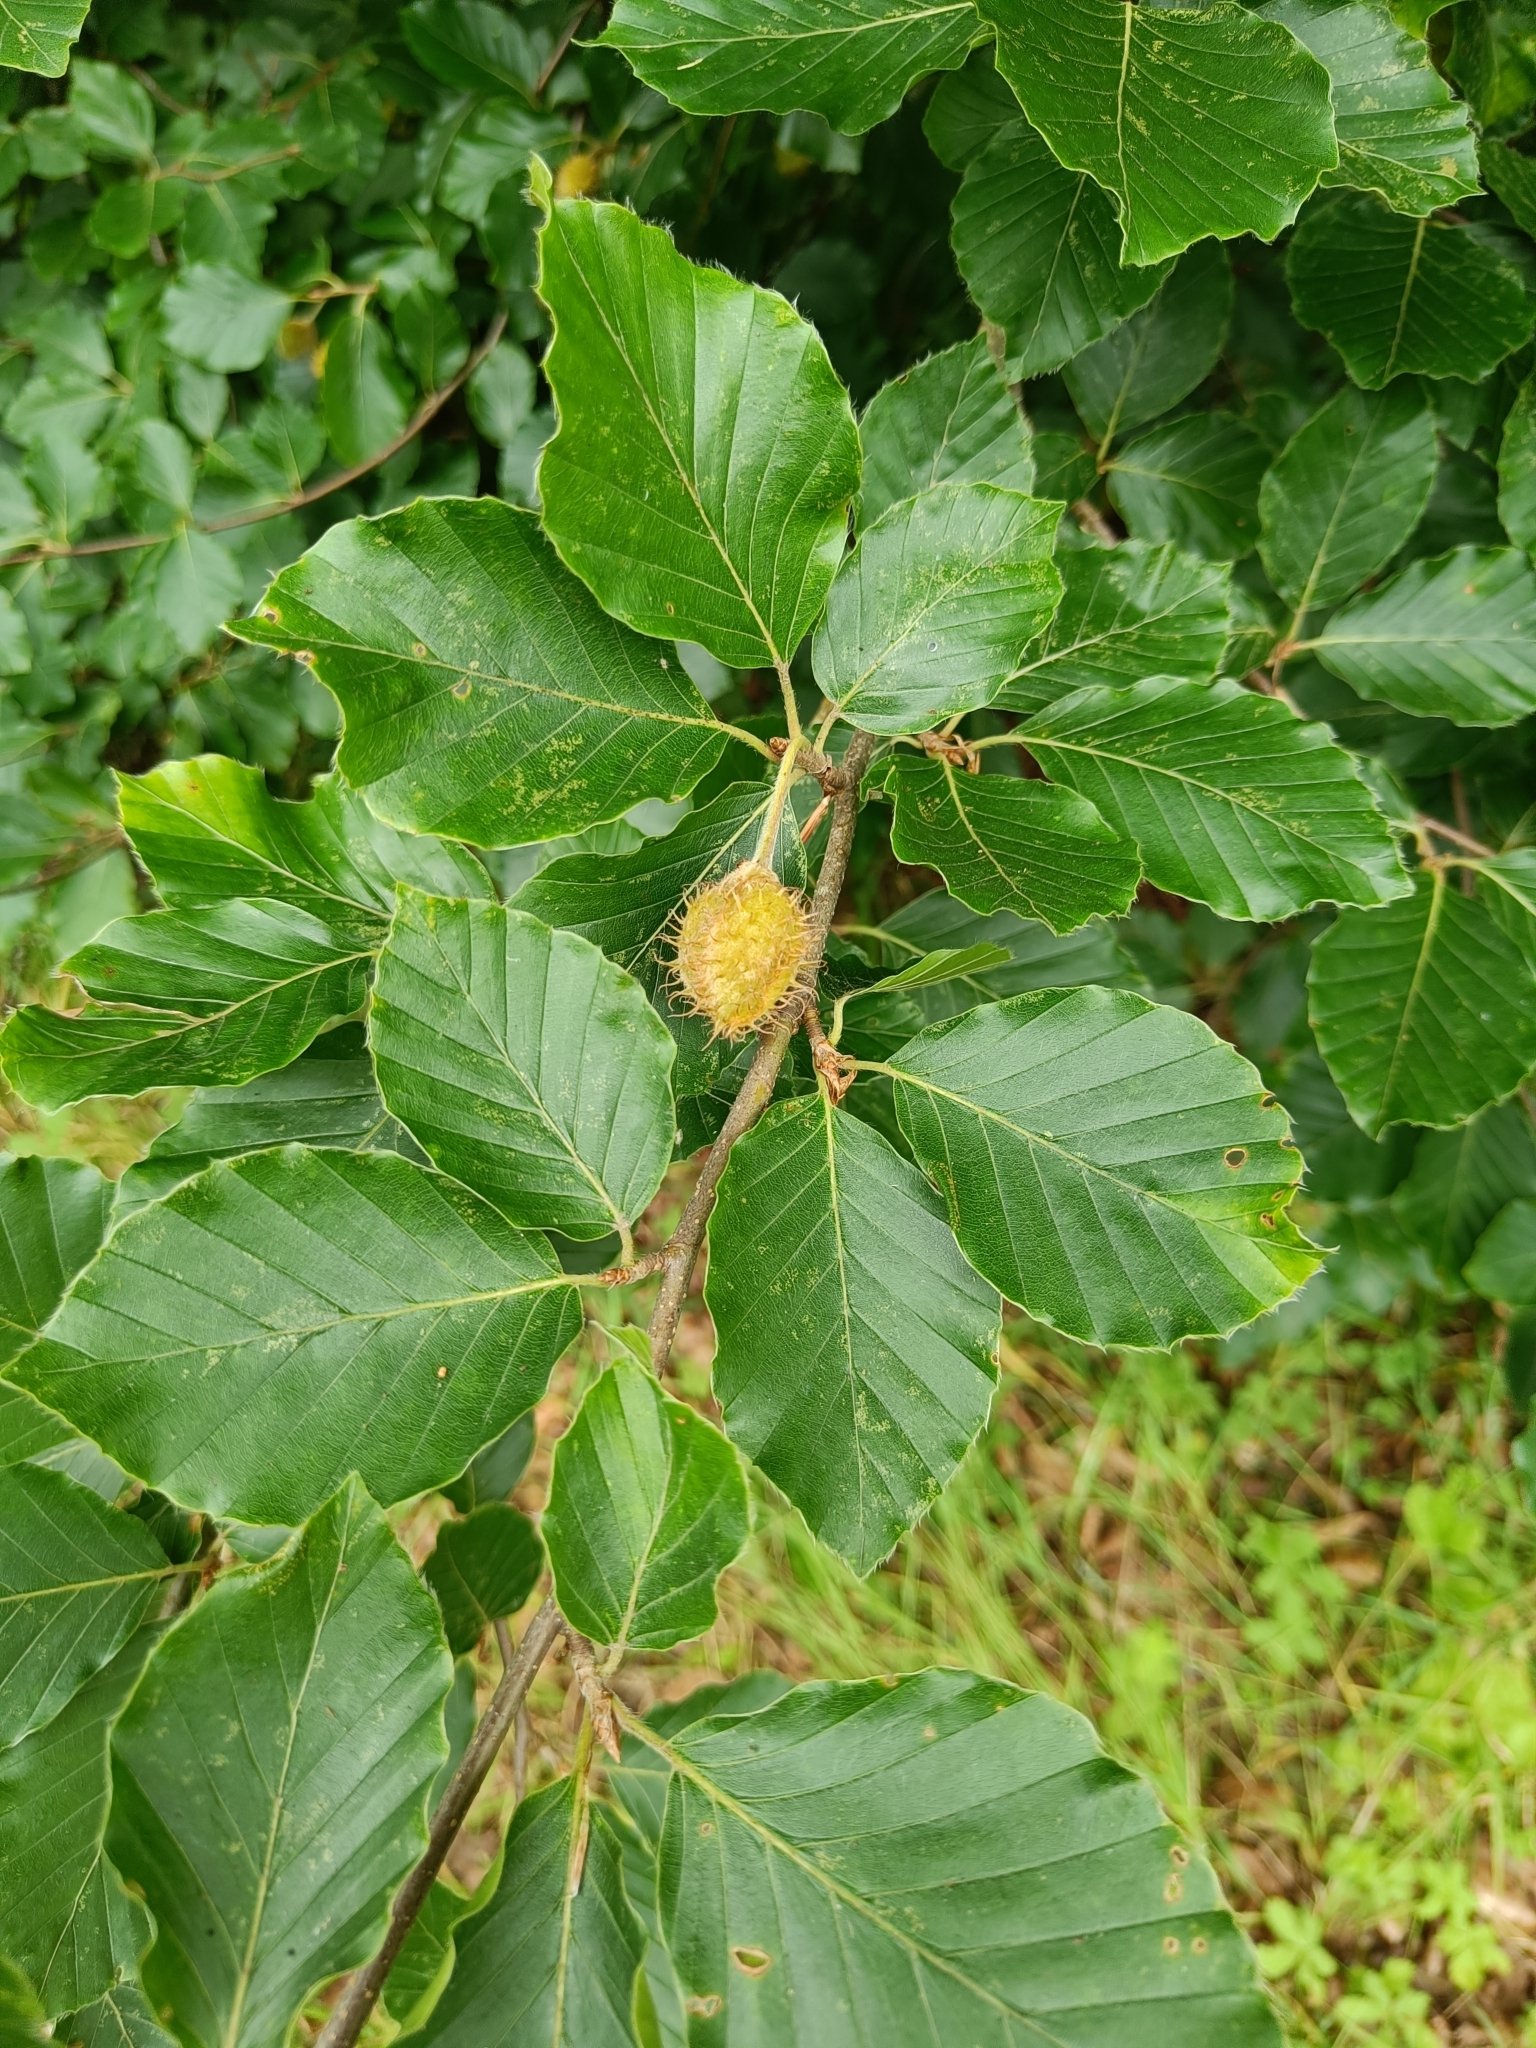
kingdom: Plantae
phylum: Tracheophyta
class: Magnoliopsida
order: Fagales
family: Fagaceae
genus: Fagus
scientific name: Fagus sylvatica
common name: Beech
